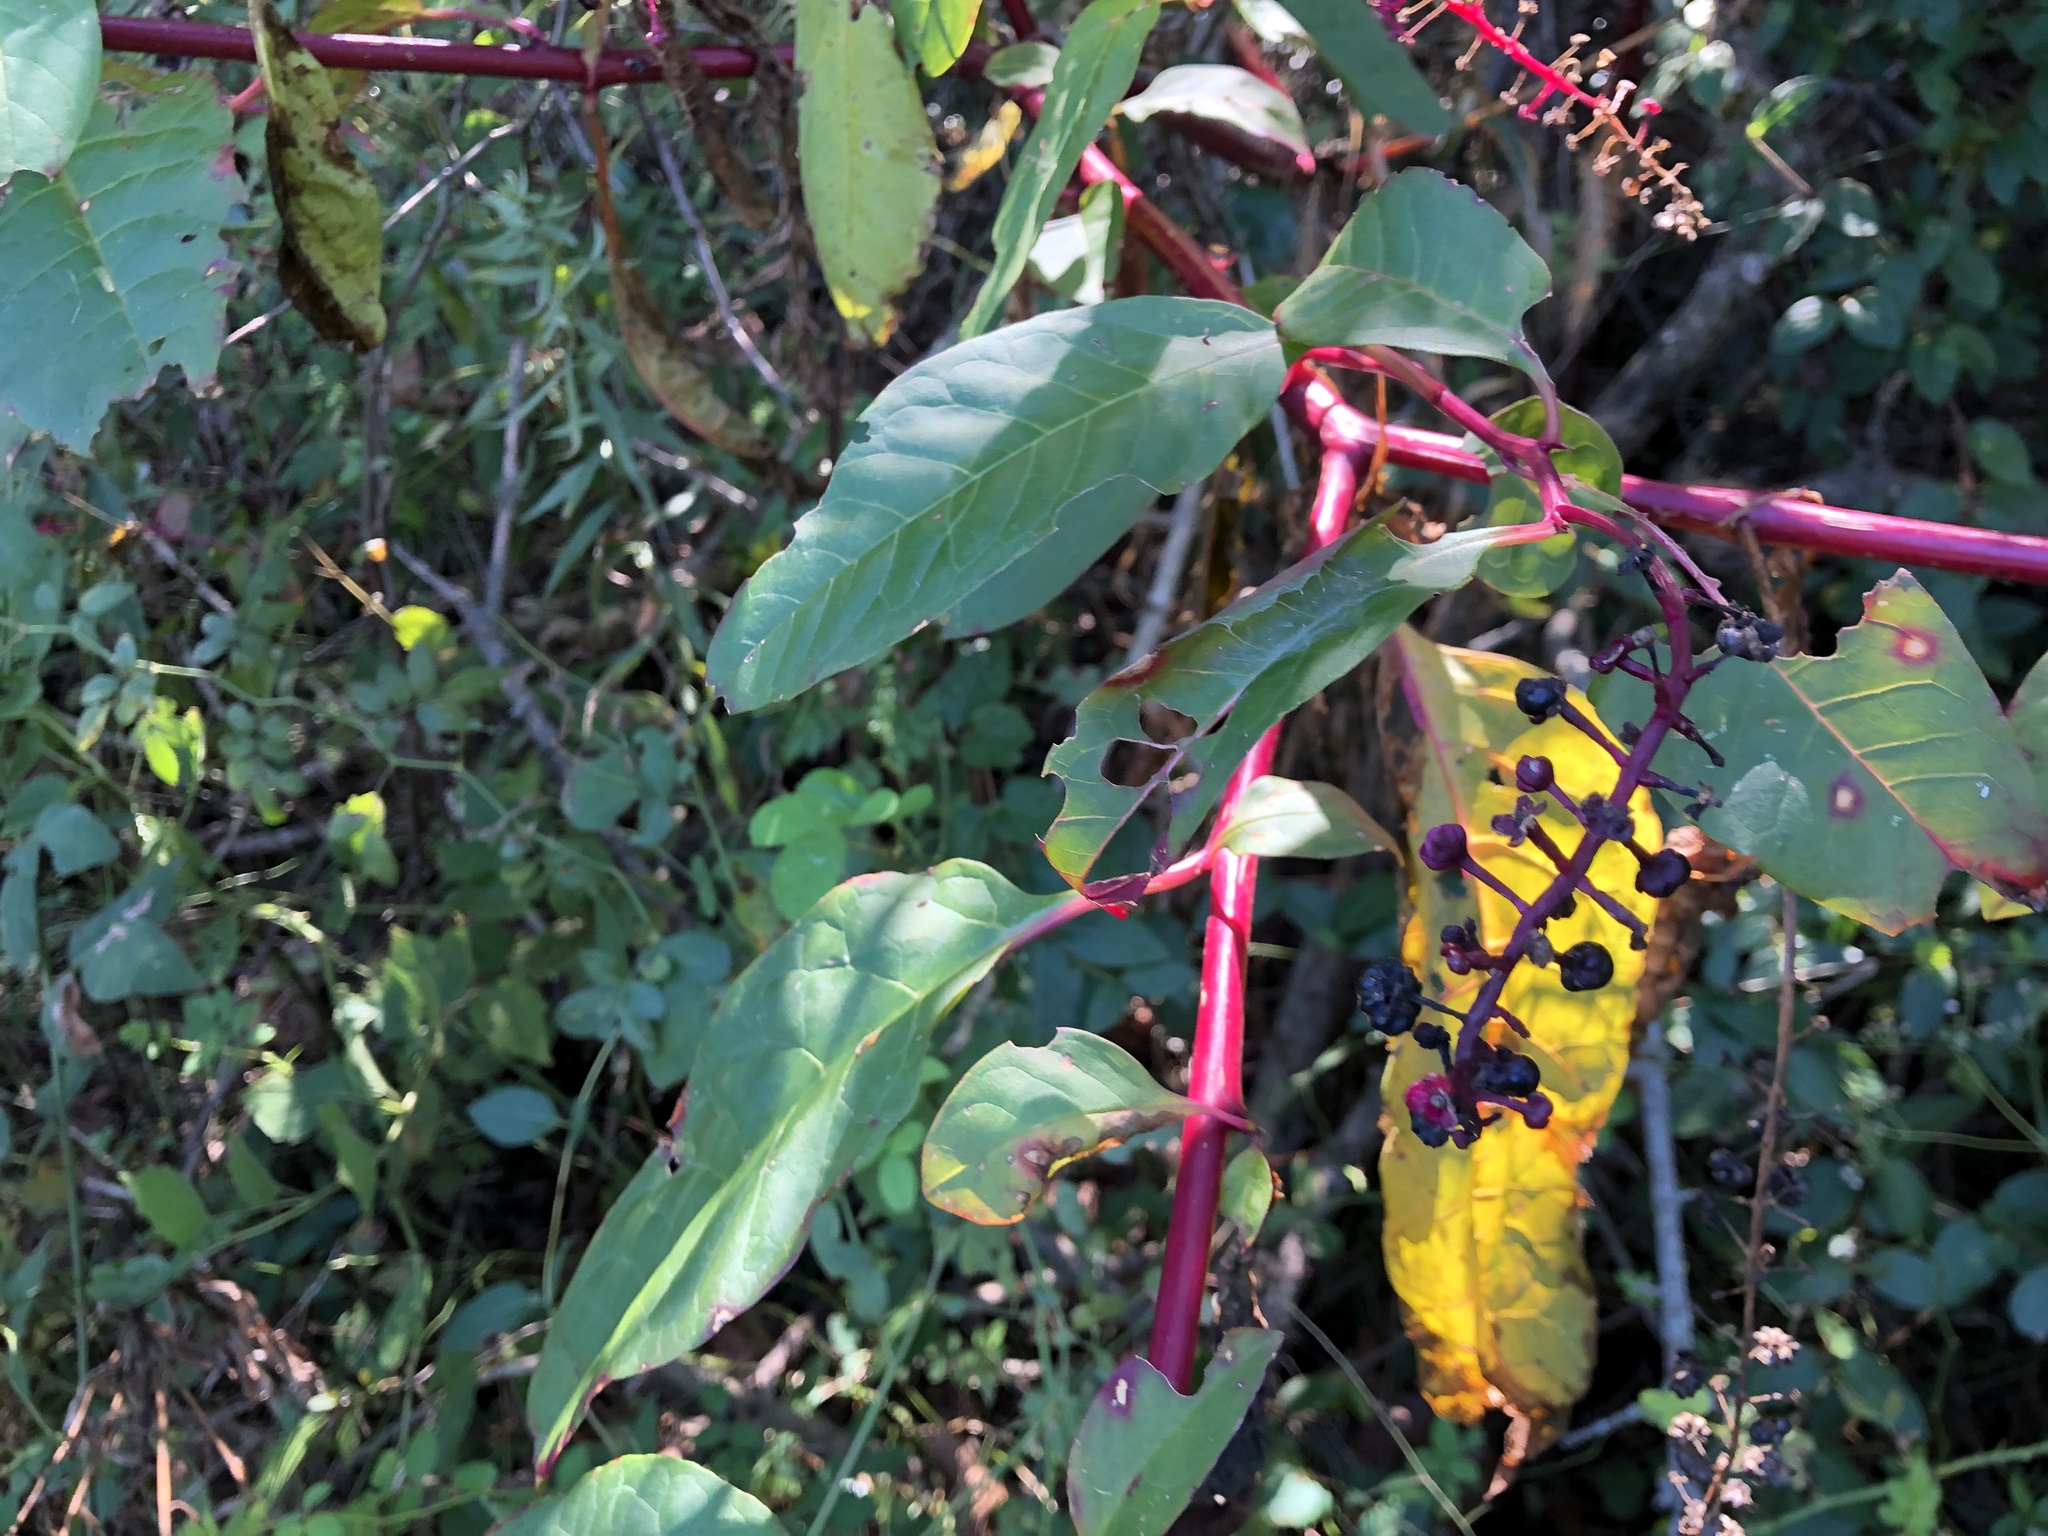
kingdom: Plantae
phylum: Tracheophyta
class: Magnoliopsida
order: Caryophyllales
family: Phytolaccaceae
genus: Phytolacca
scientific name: Phytolacca americana
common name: American pokeweed
